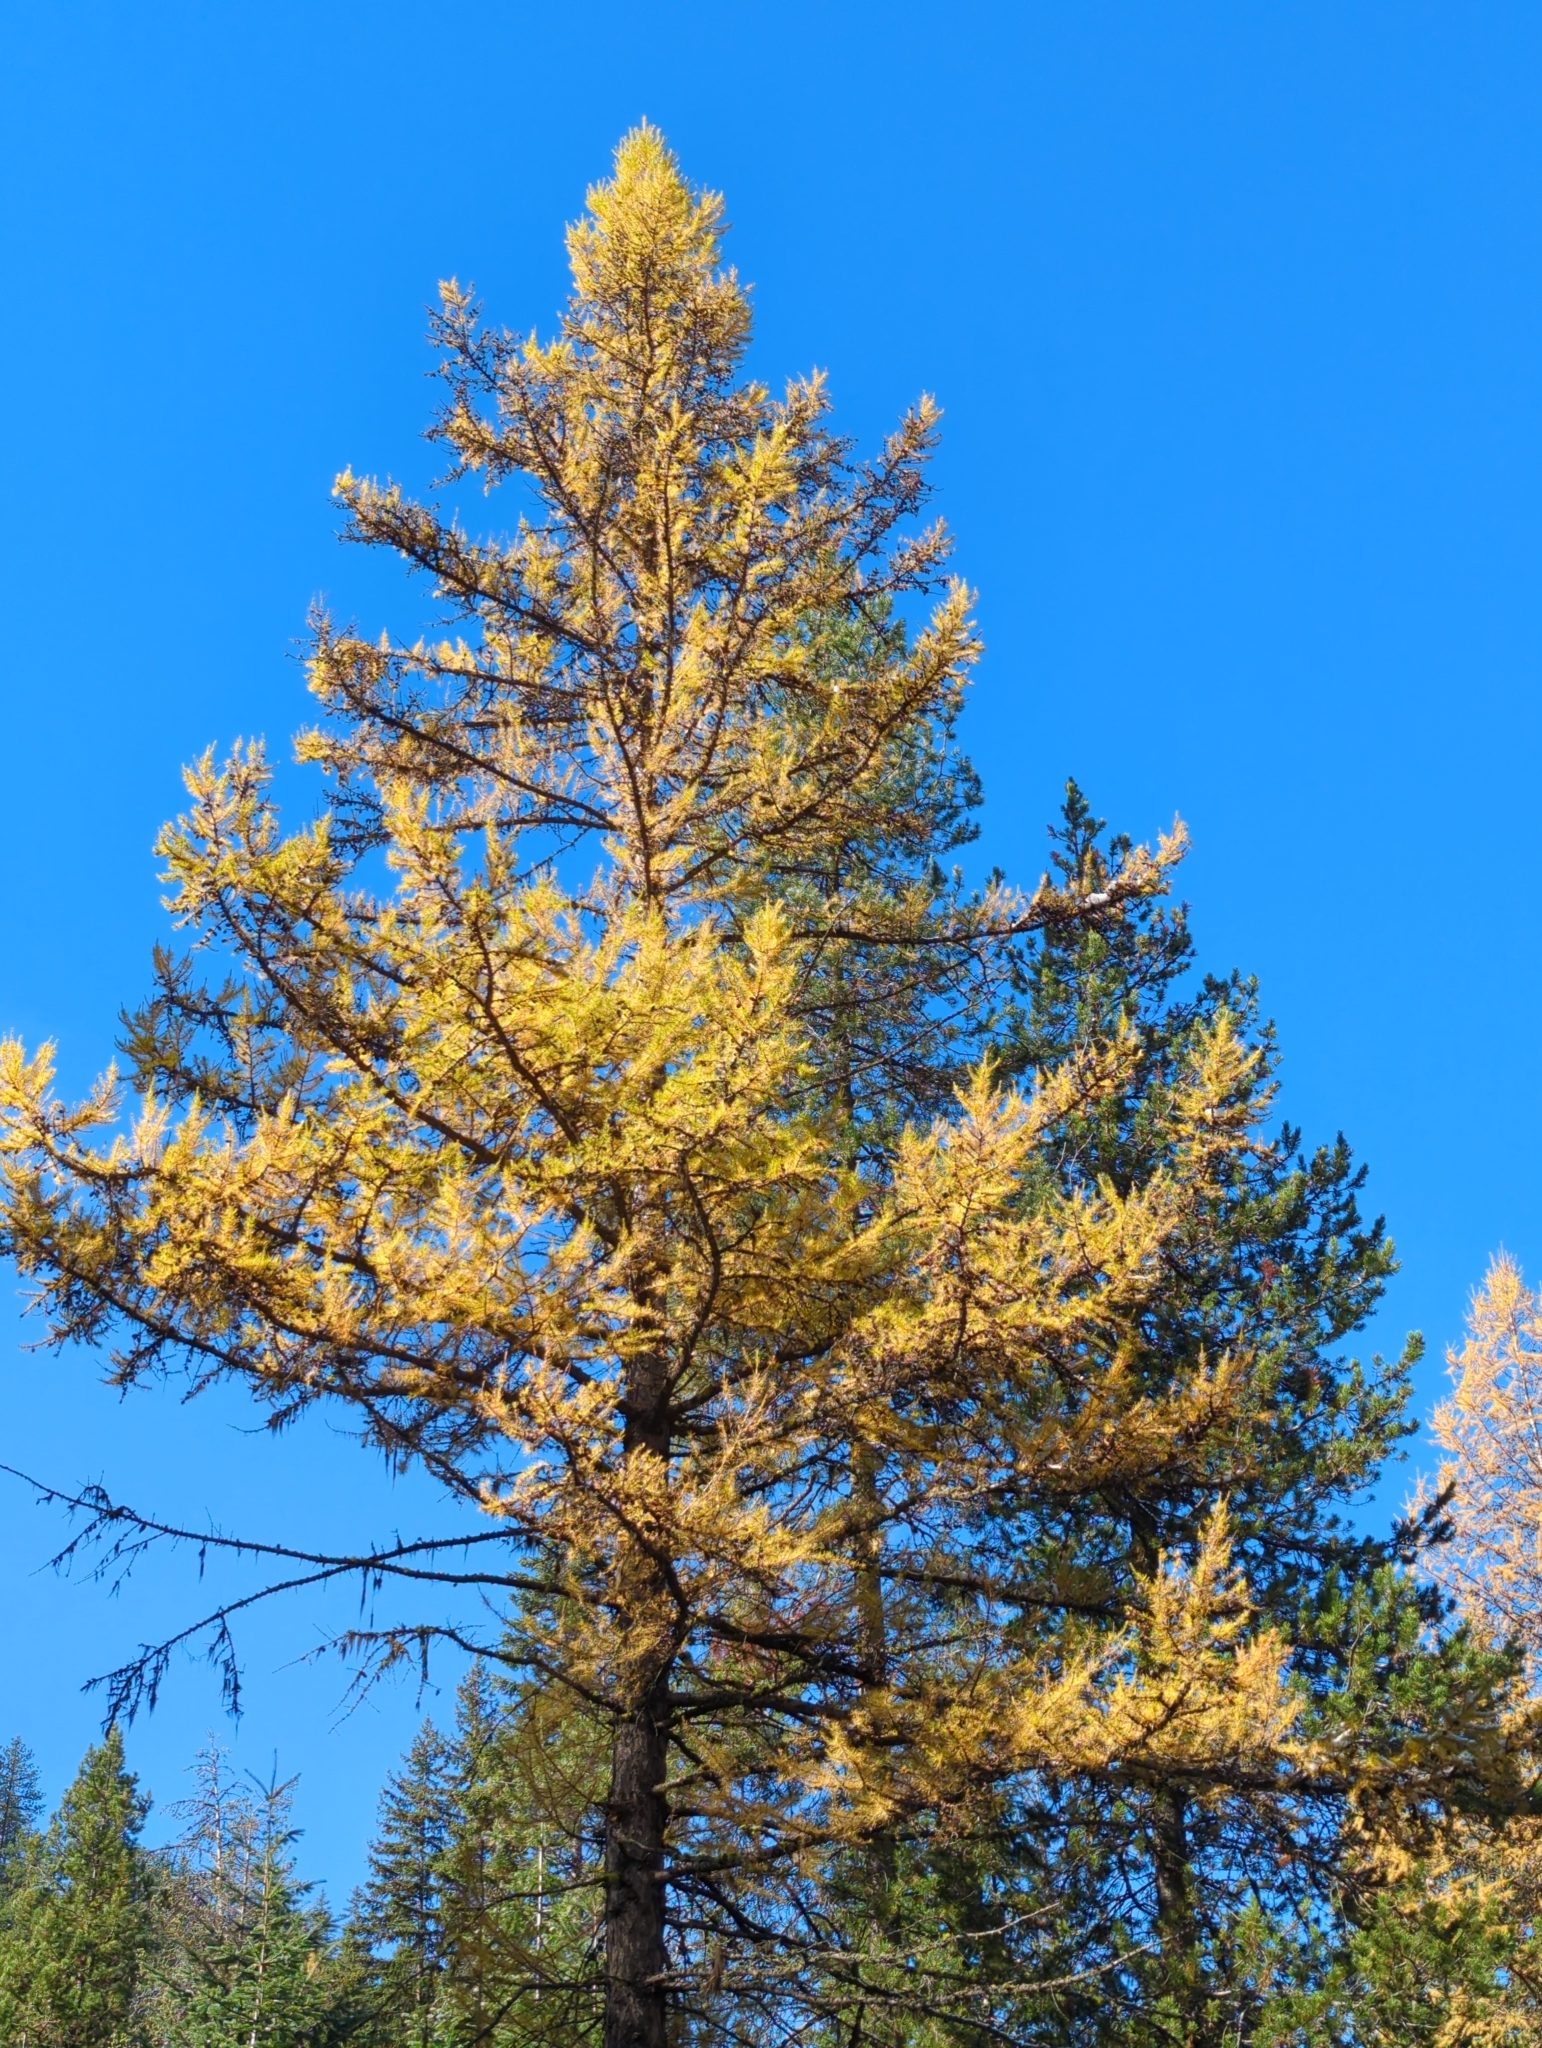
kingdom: Plantae
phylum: Tracheophyta
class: Pinopsida
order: Pinales
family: Pinaceae
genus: Larix
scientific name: Larix occidentalis
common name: Western larch
